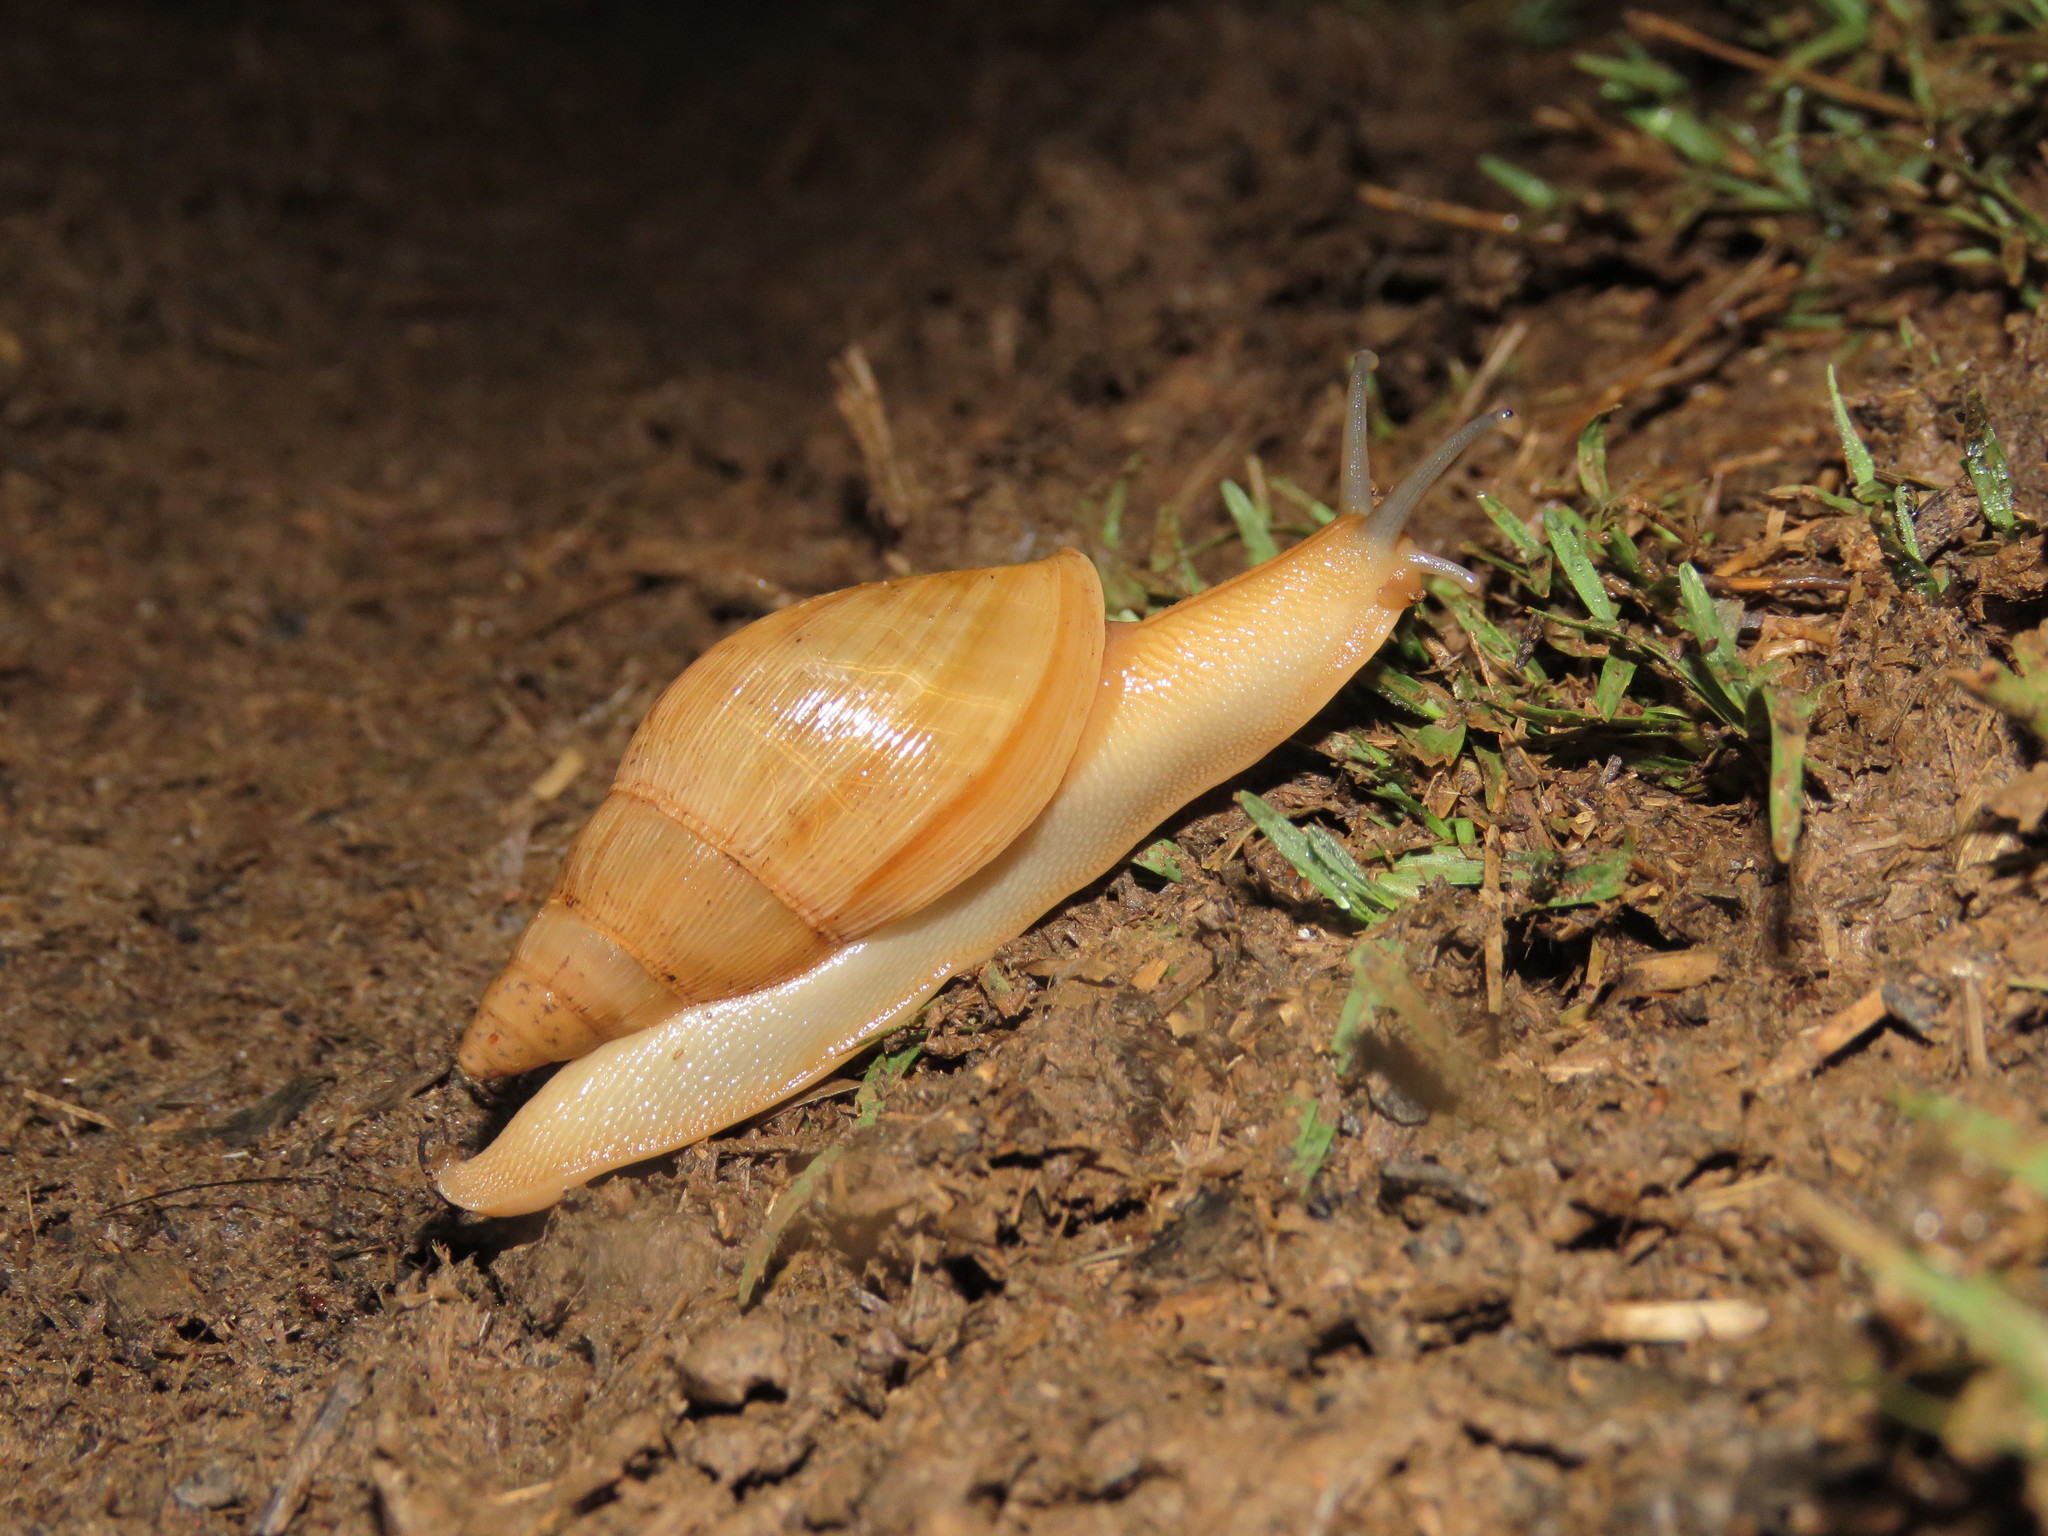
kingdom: Animalia
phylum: Mollusca
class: Gastropoda
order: Stylommatophora
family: Spiraxidae
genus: Euglandina
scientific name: Euglandina striata
